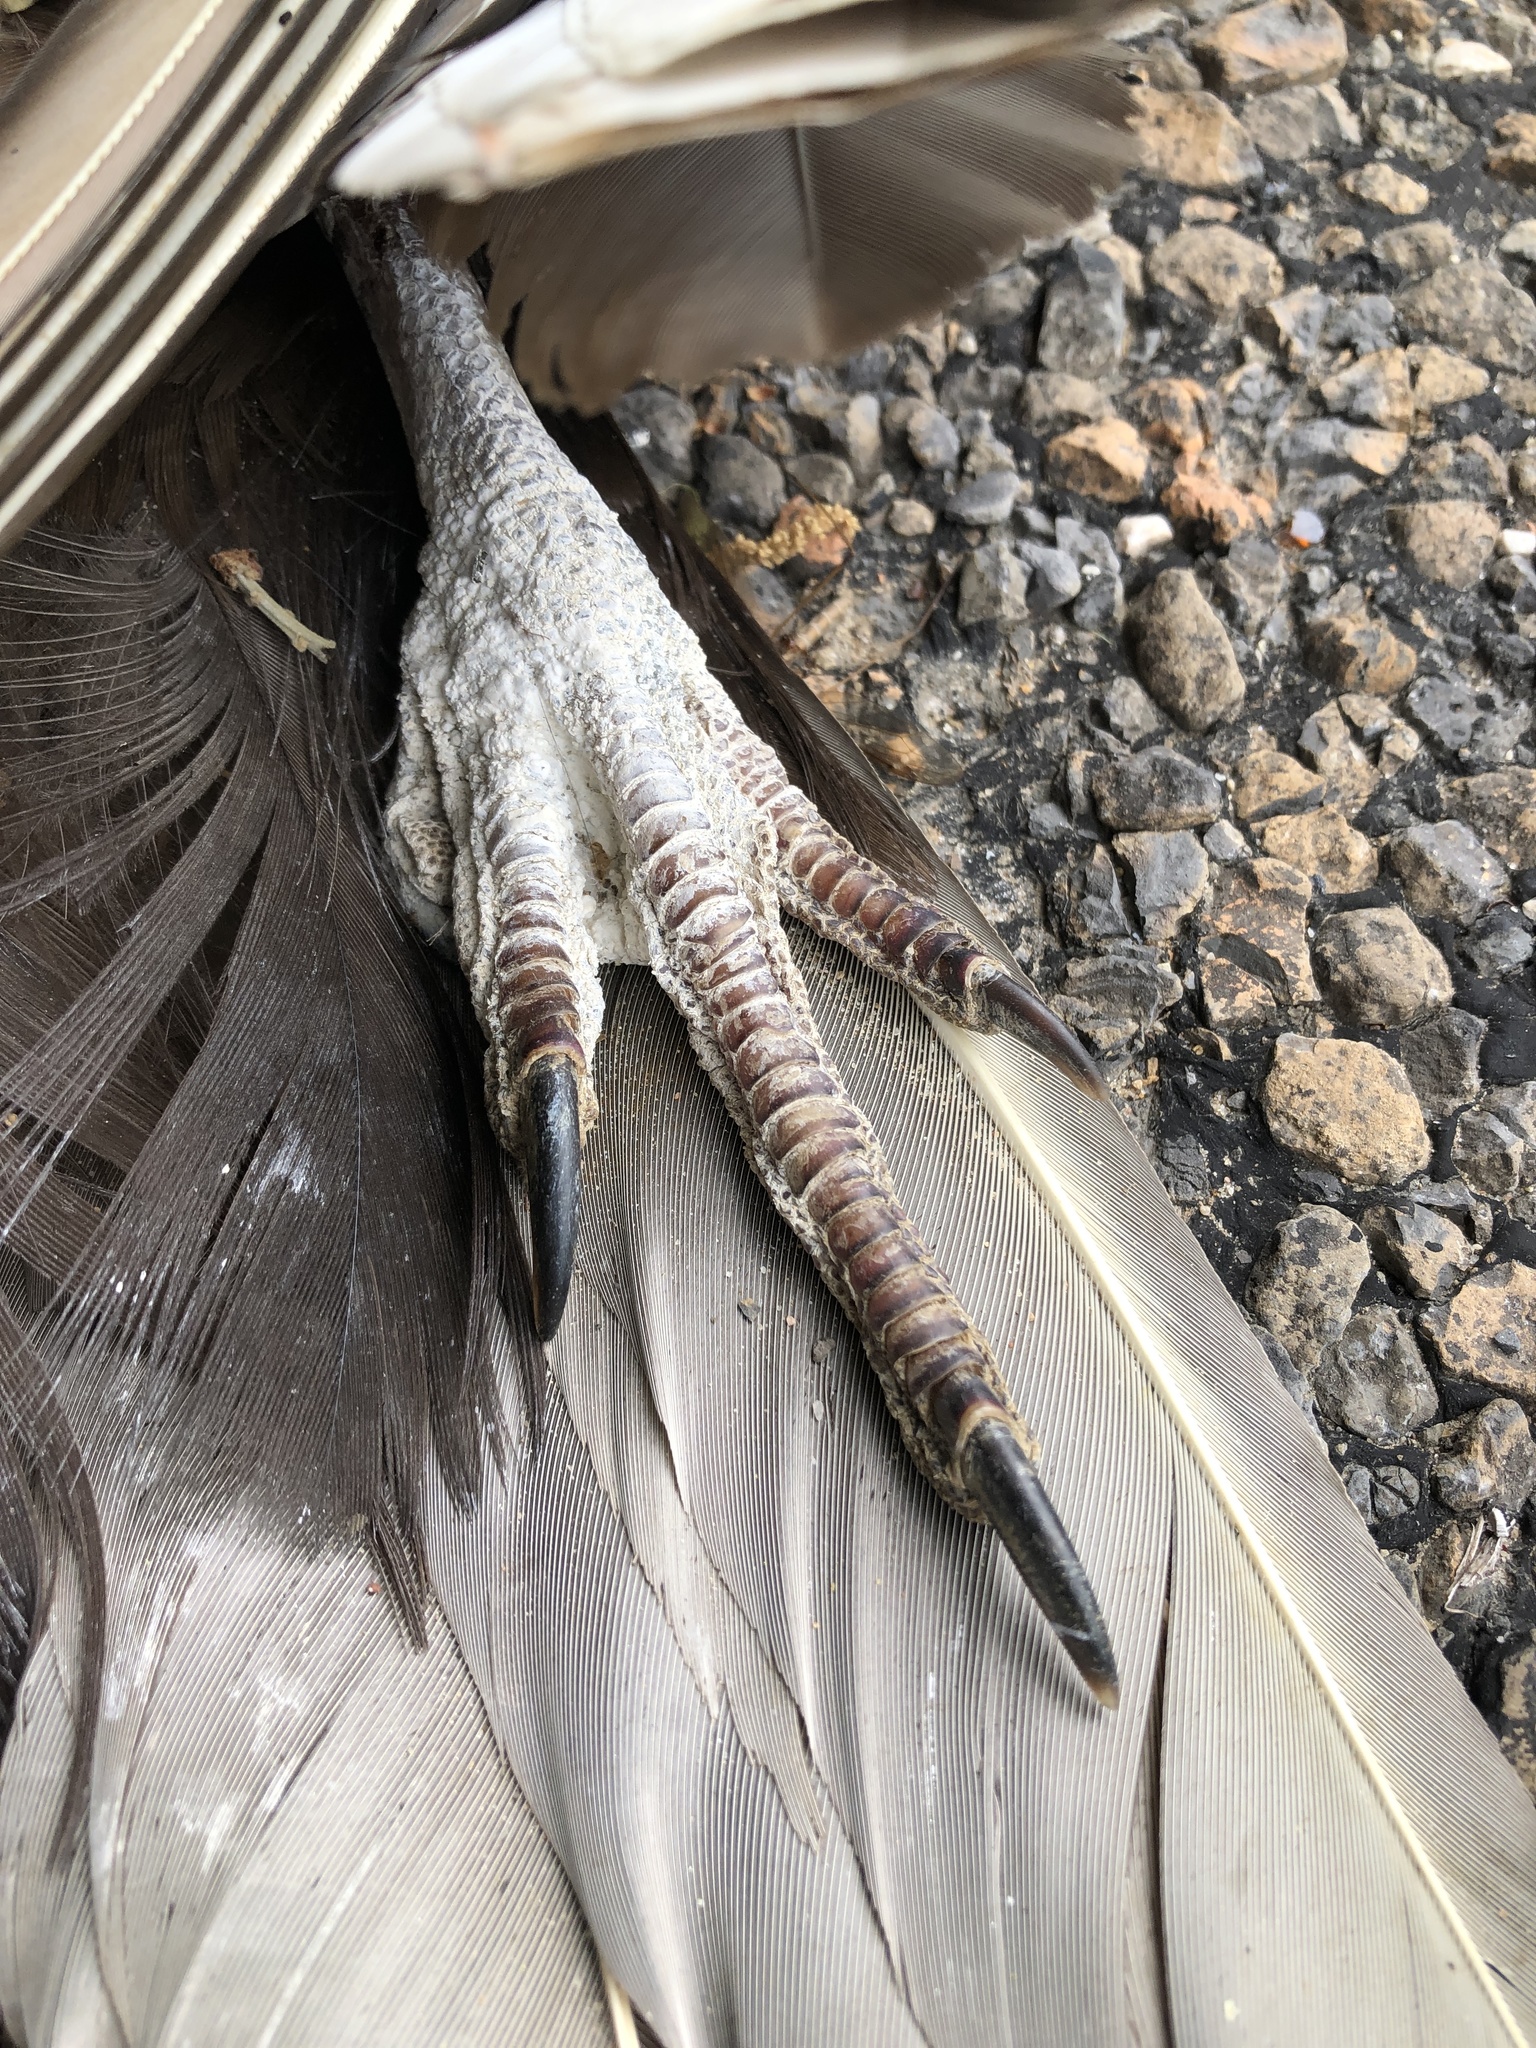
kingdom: Animalia
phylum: Chordata
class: Aves
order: Accipitriformes
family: Cathartidae
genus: Coragyps
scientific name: Coragyps atratus
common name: Black vulture
